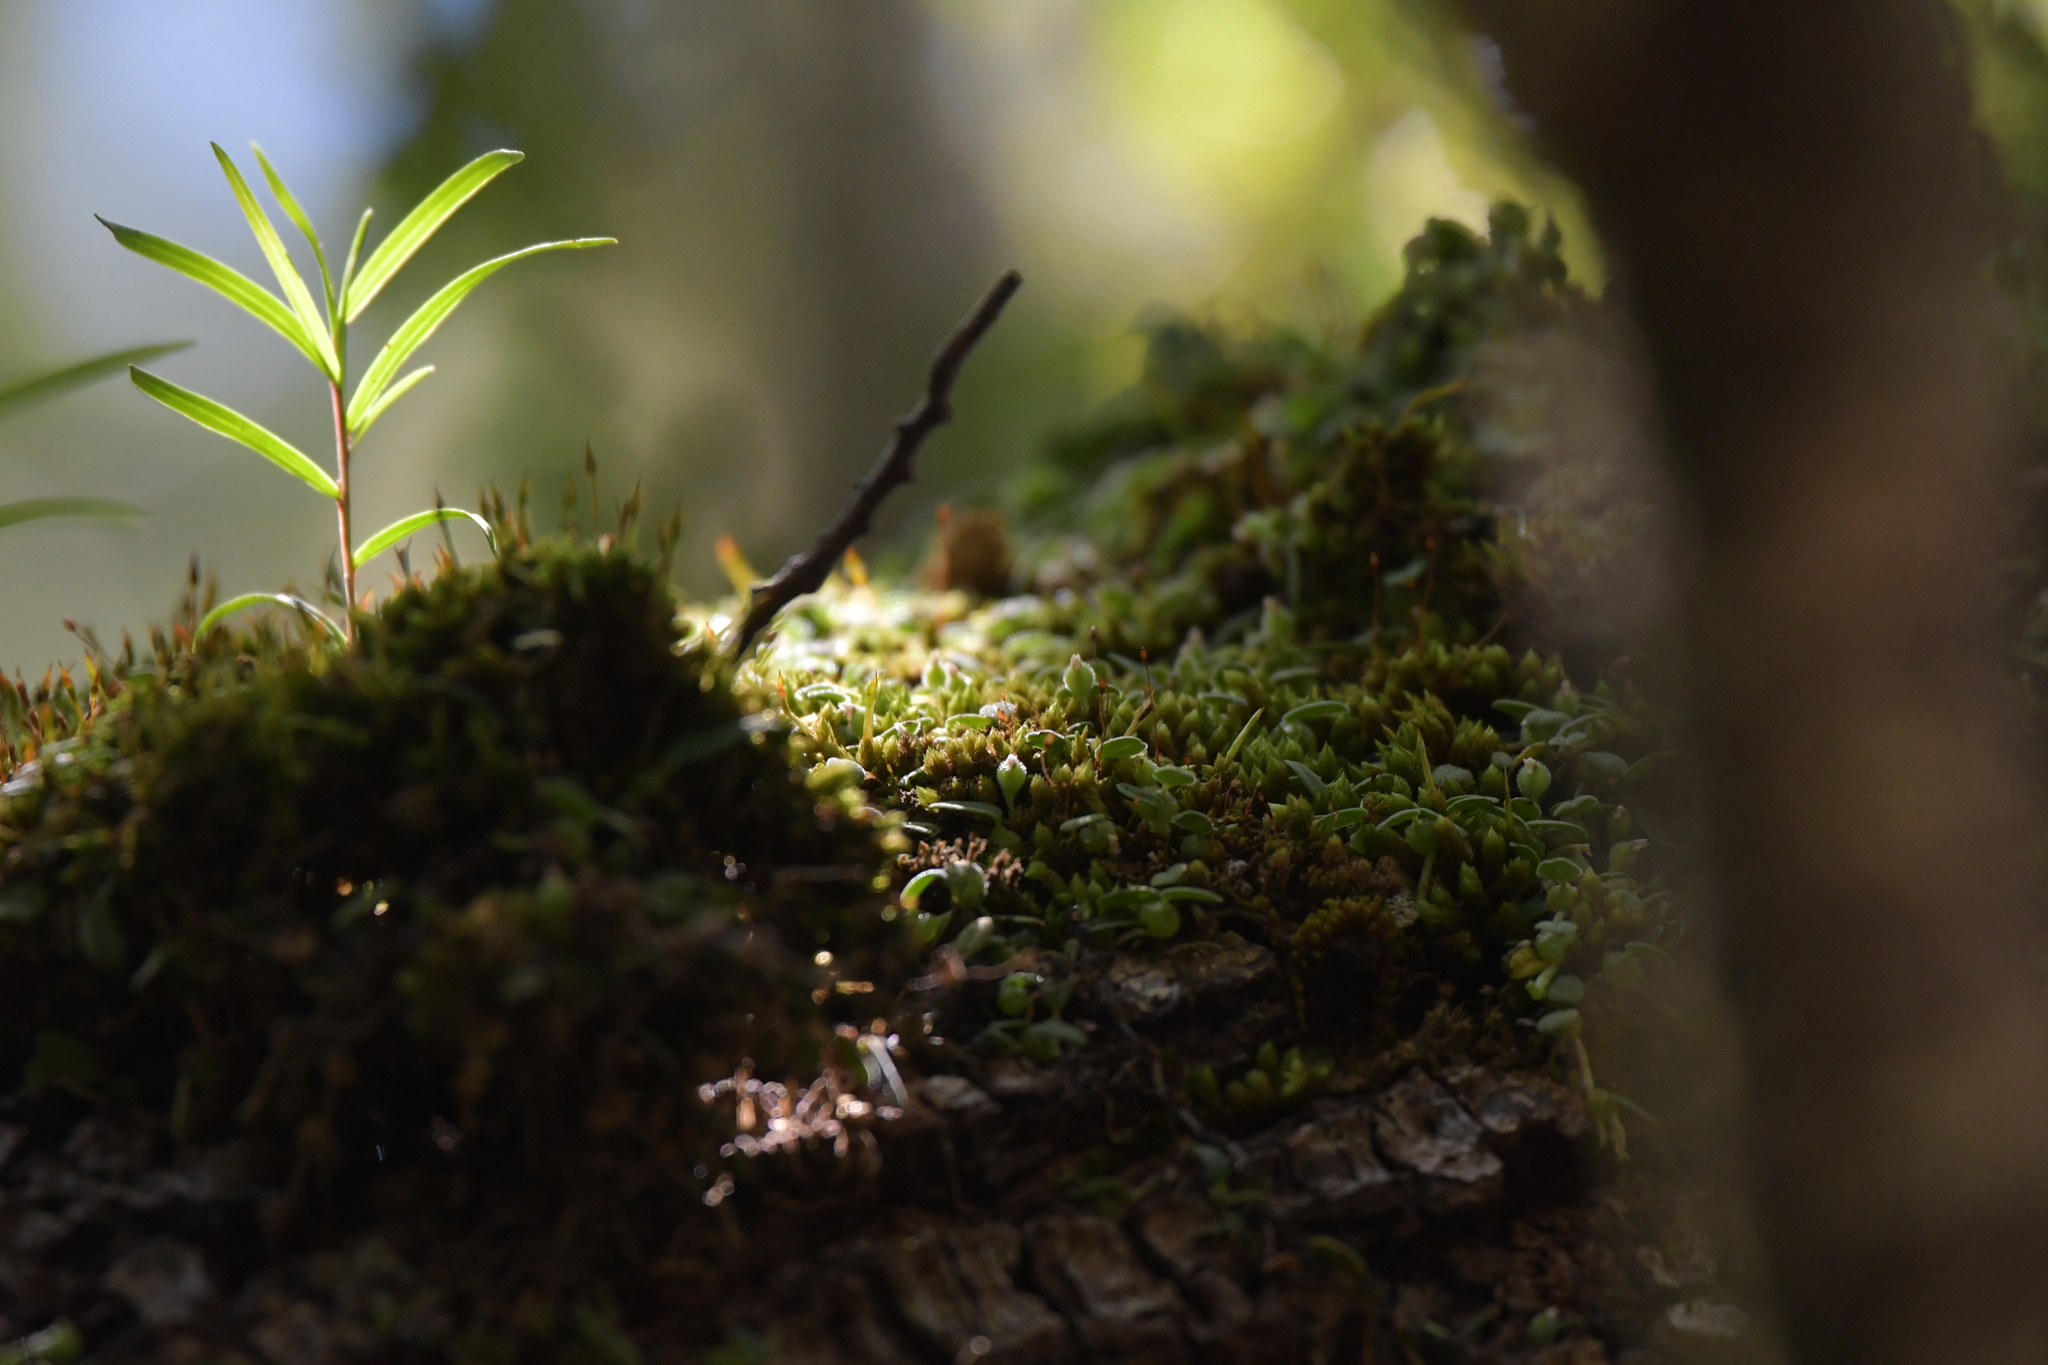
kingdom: Plantae
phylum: Tracheophyta
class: Liliopsida
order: Asparagales
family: Orchidaceae
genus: Bulbophyllum
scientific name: Bulbophyllum pygmaeum
